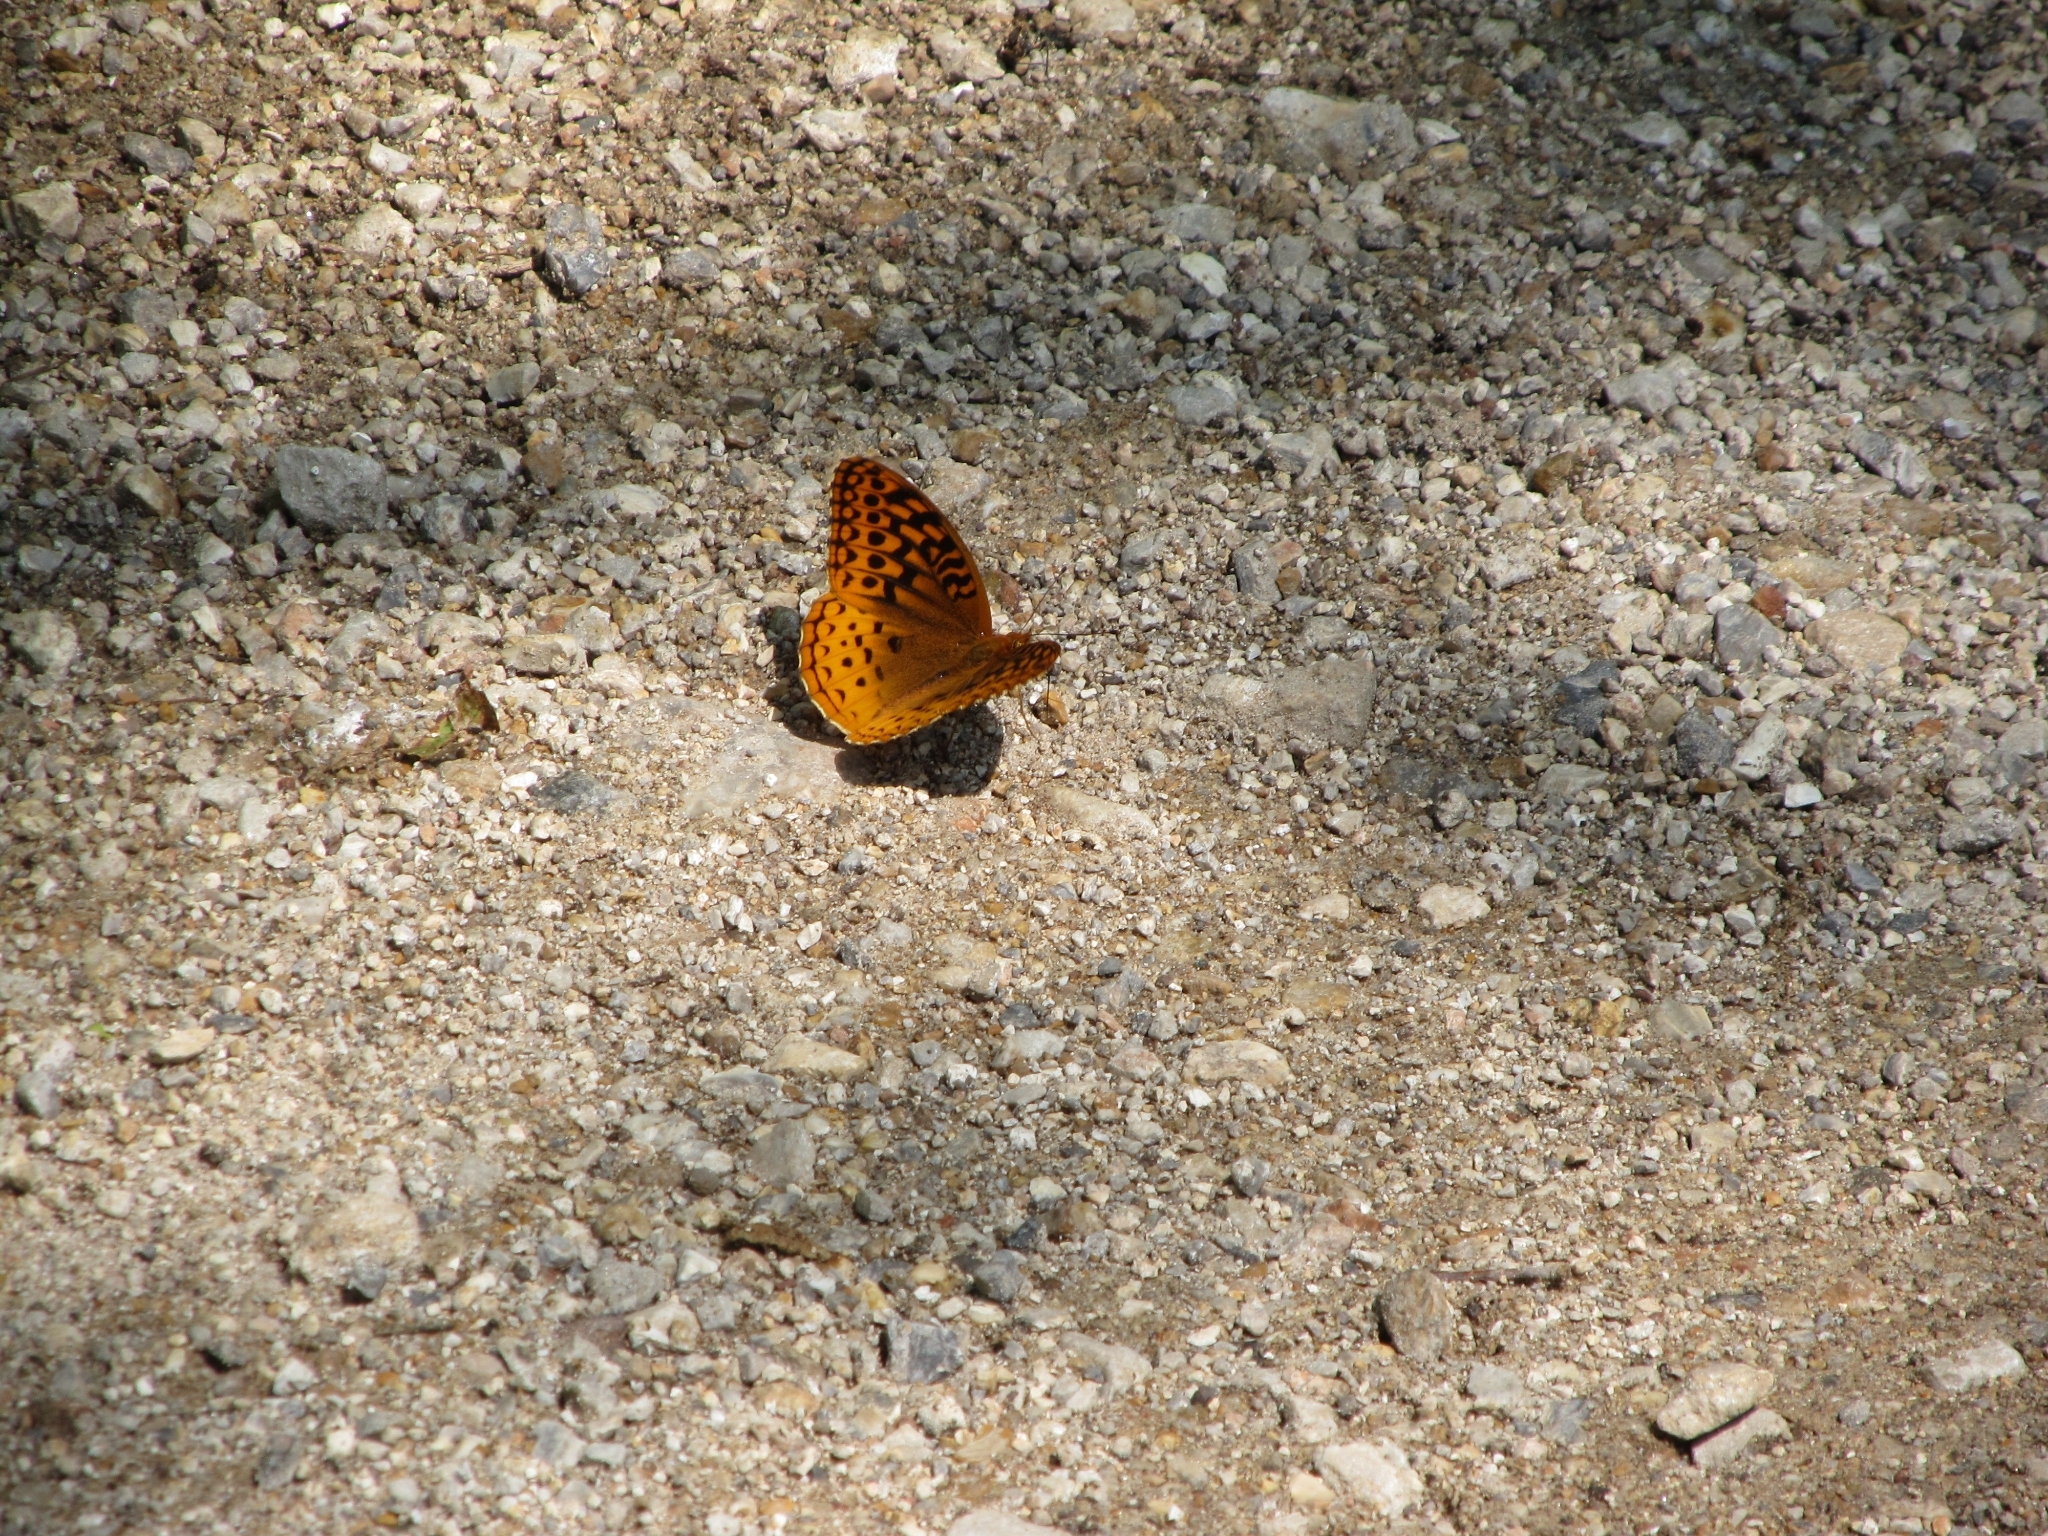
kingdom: Animalia
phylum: Arthropoda
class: Insecta
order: Lepidoptera
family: Nymphalidae
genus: Speyeria
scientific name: Speyeria cybele
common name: Great spangled fritillary
